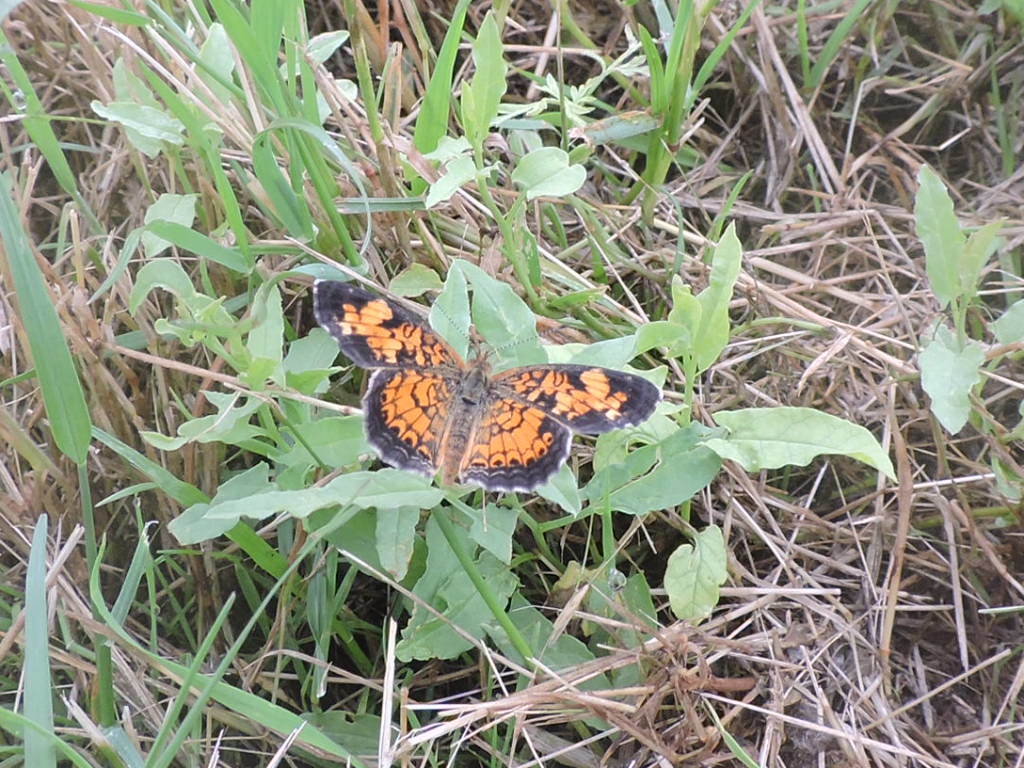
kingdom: Animalia
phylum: Arthropoda
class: Insecta
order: Lepidoptera
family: Nymphalidae
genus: Phyciodes
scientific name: Phyciodes tharos
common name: Pearl crescent
